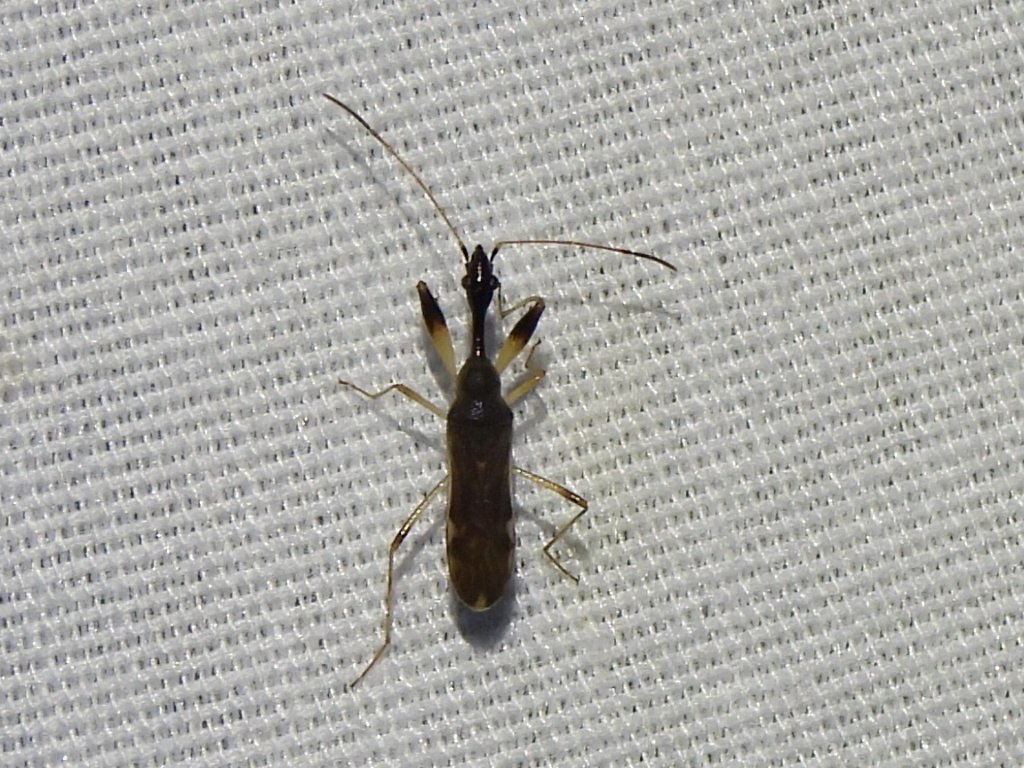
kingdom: Animalia
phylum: Arthropoda
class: Insecta
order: Hemiptera
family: Rhyparochromidae
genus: Myodocha
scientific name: Myodocha serripes
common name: Long-necked seed bug
